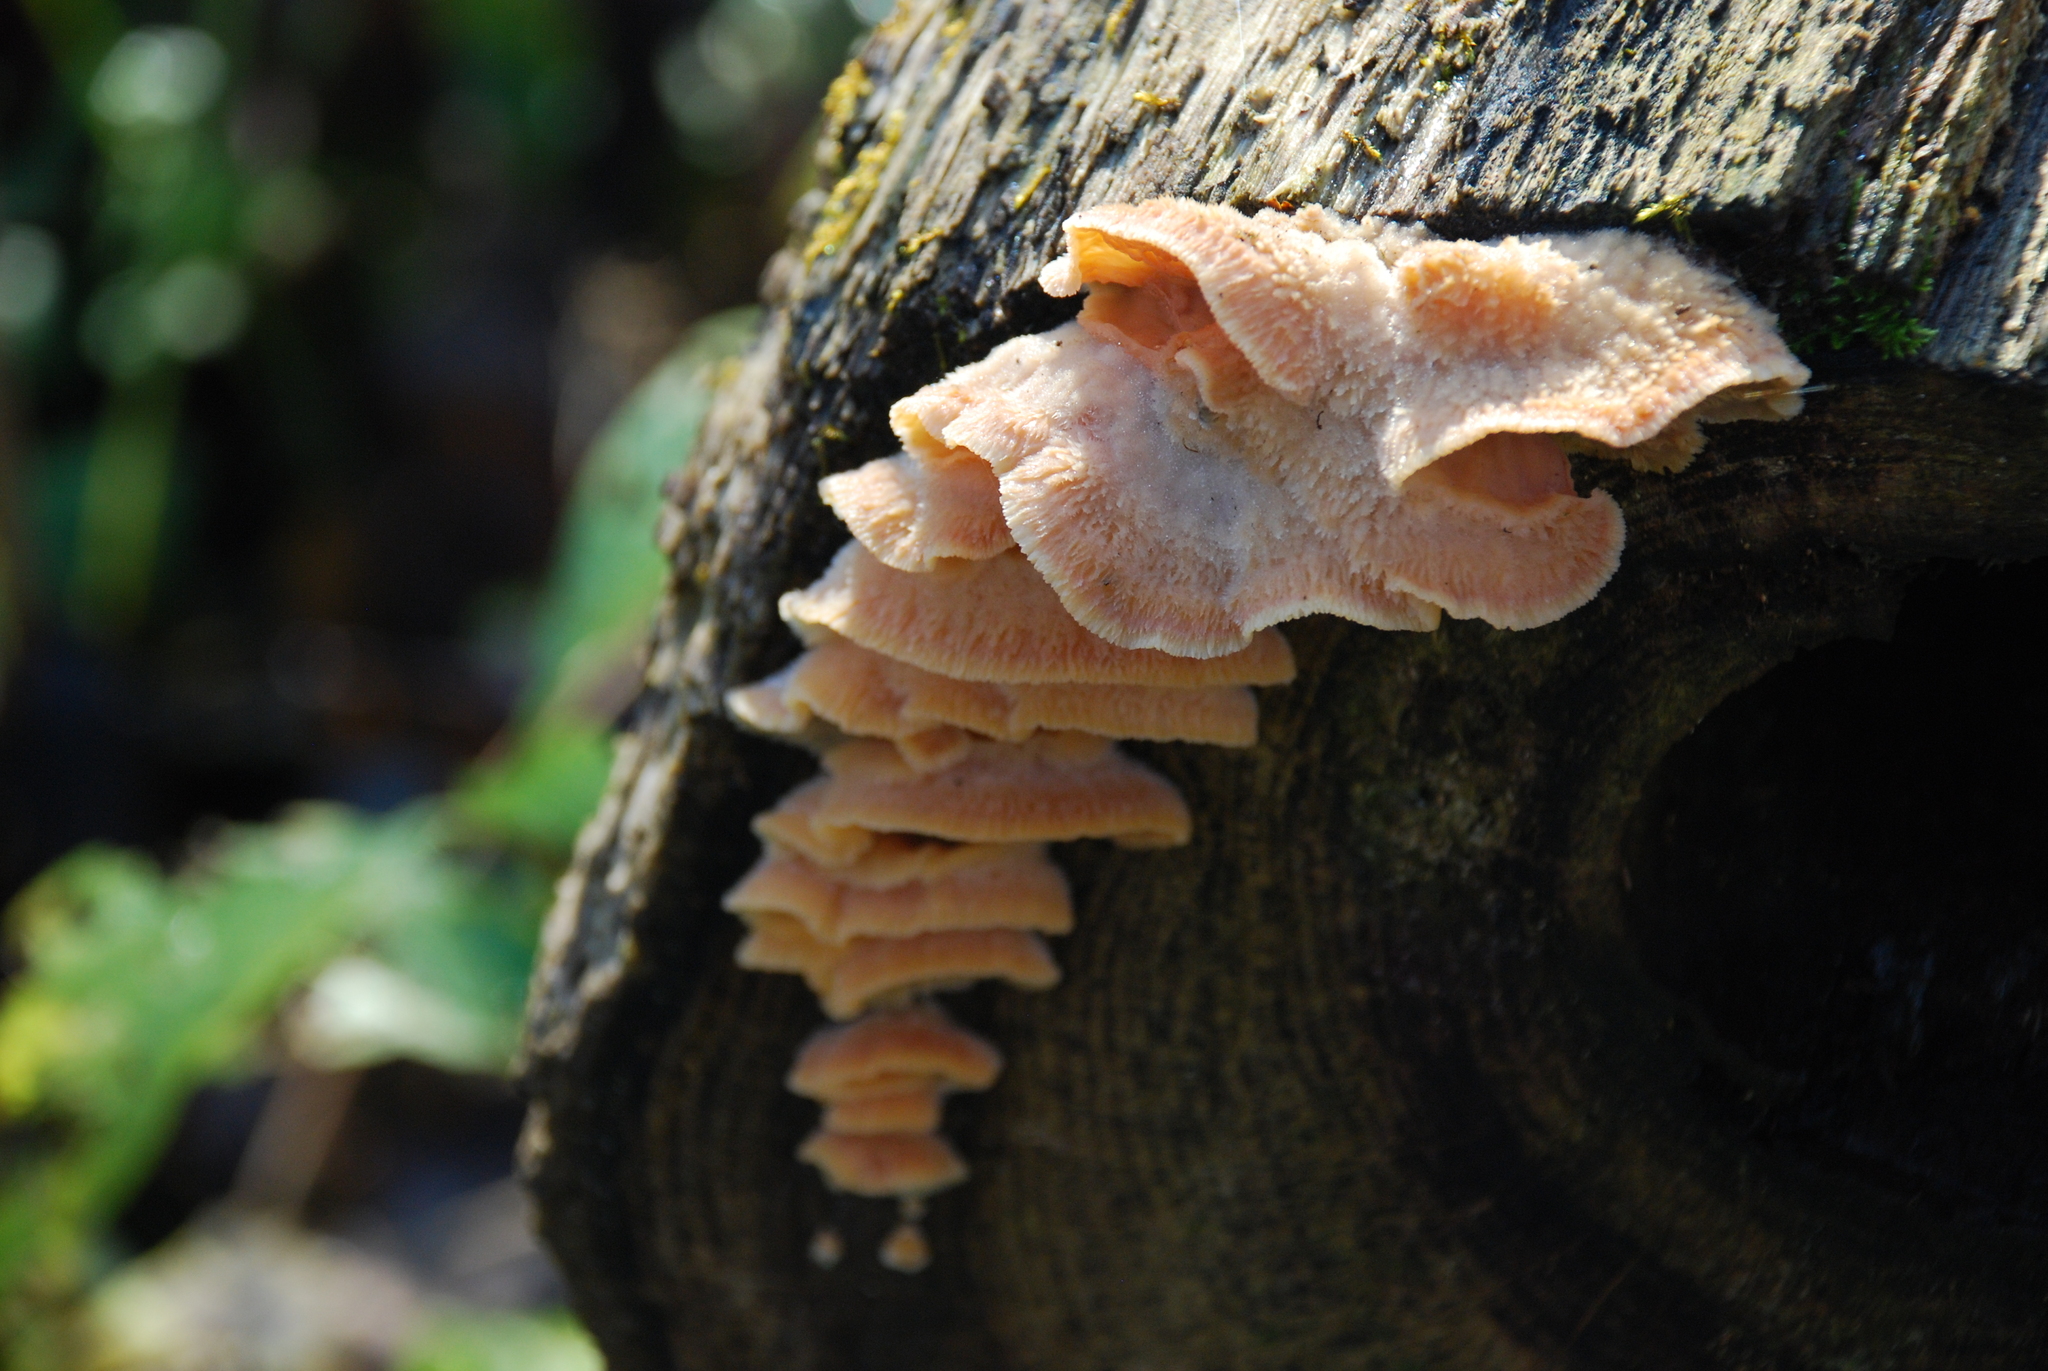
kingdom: Fungi
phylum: Basidiomycota
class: Agaricomycetes
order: Polyporales
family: Meruliaceae
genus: Phlebia
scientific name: Phlebia tremellosa
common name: Jelly rot
